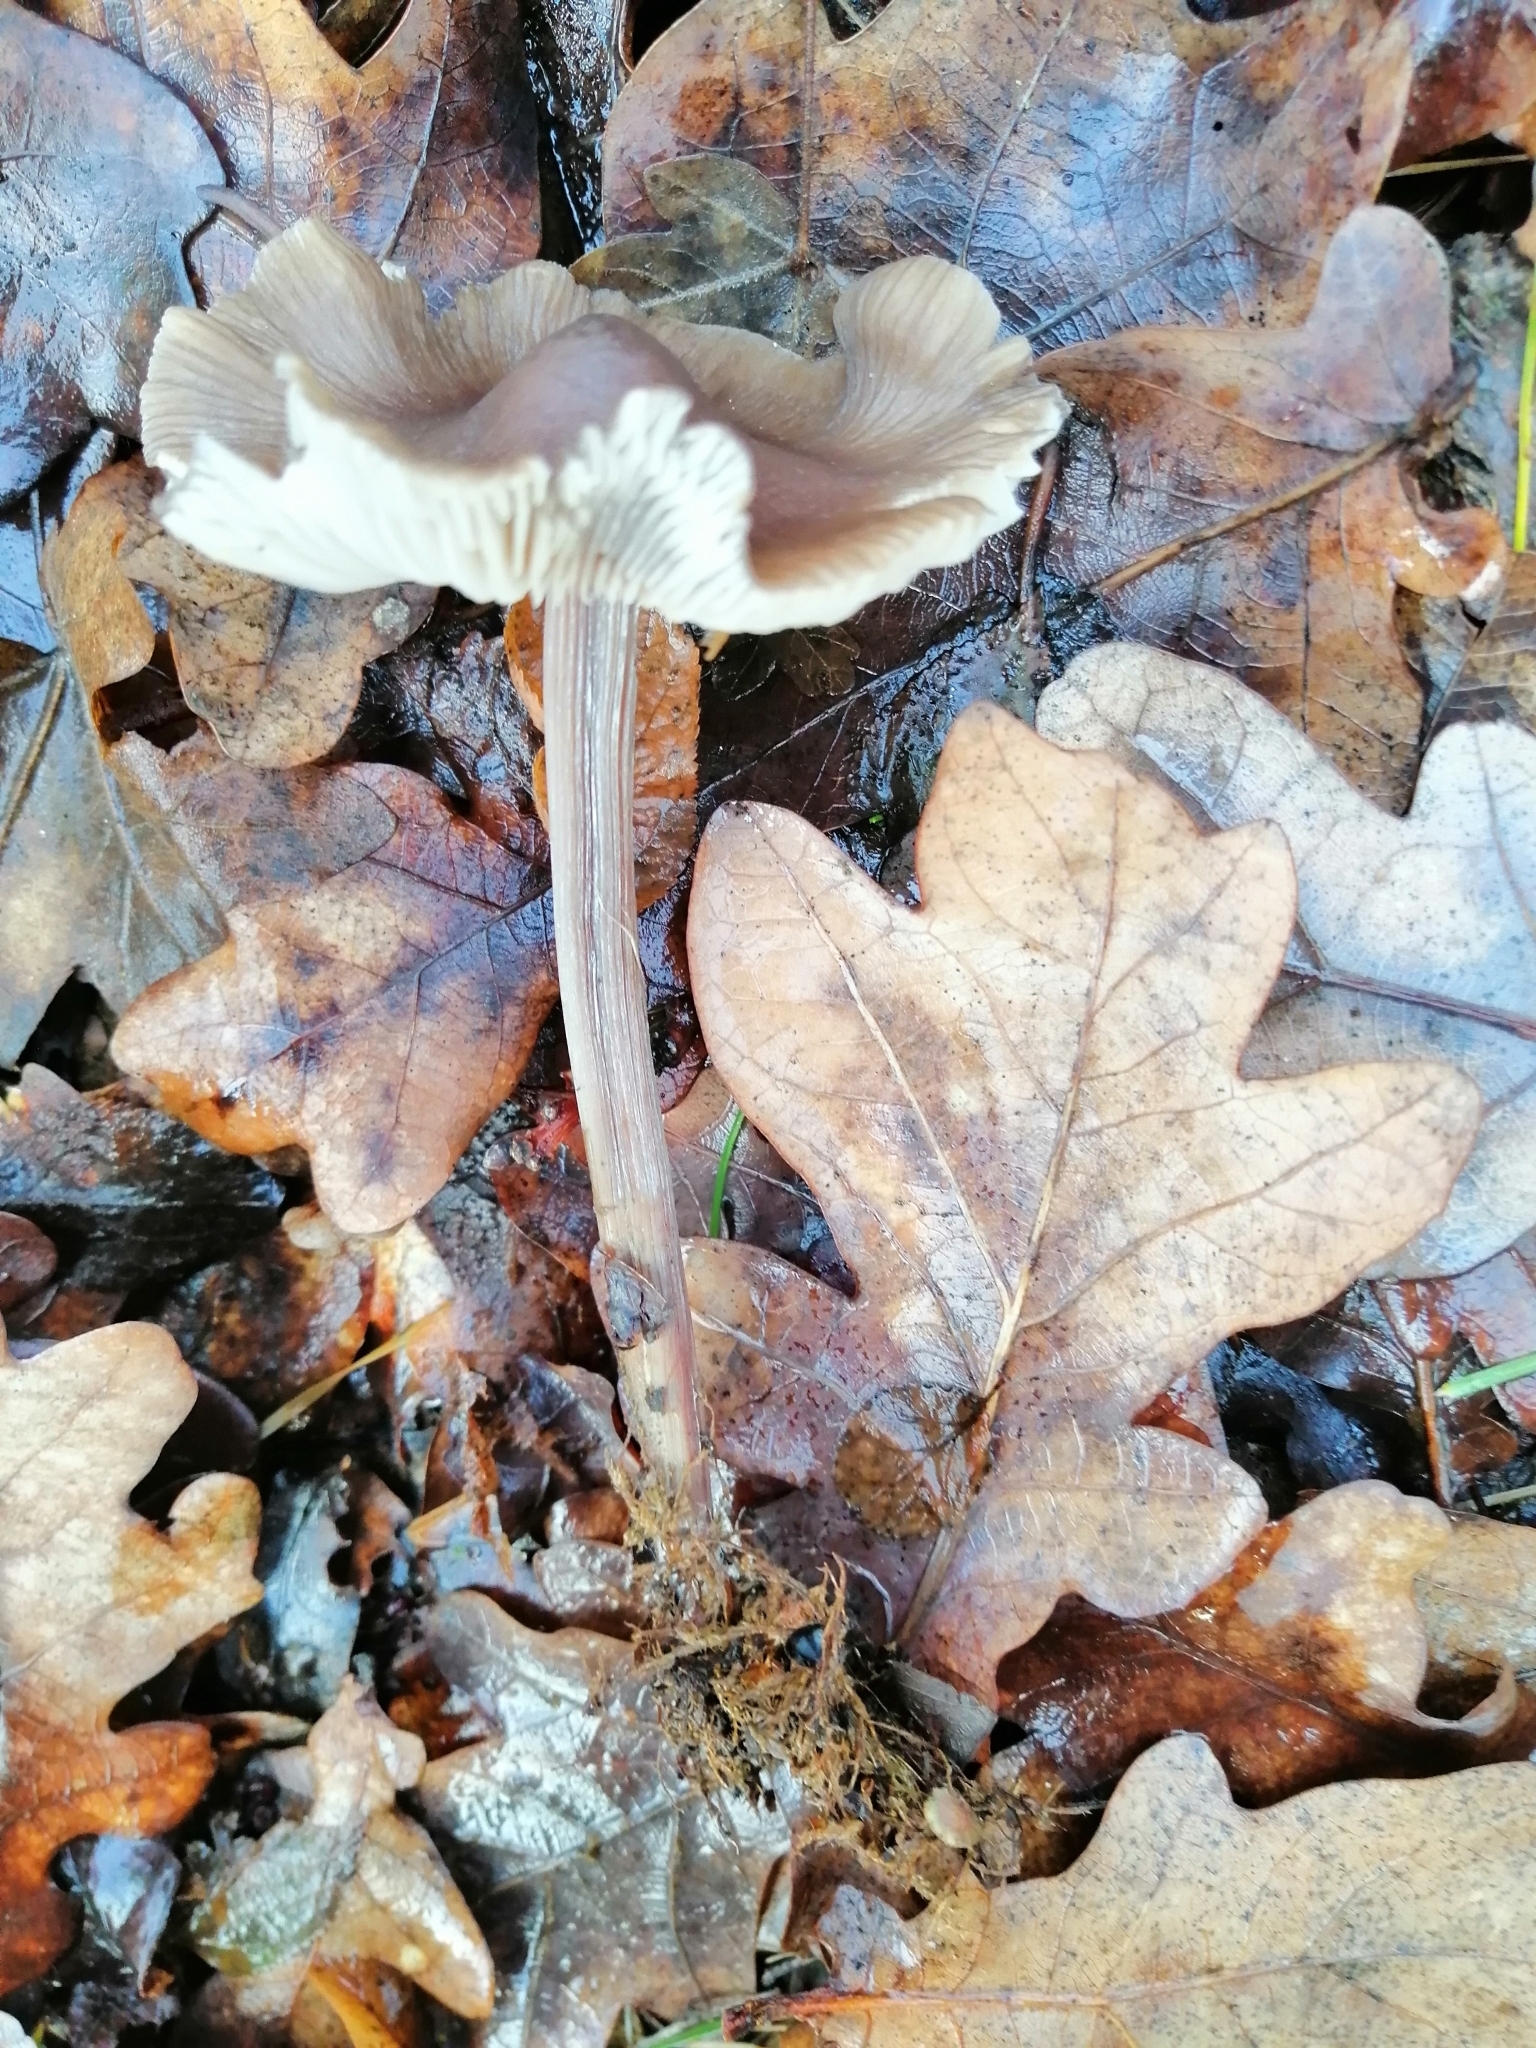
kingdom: Fungi
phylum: Basidiomycota
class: Agaricomycetes
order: Agaricales
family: Mycenaceae
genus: Mycena
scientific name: Mycena polygramma
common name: Grooved bonnet
